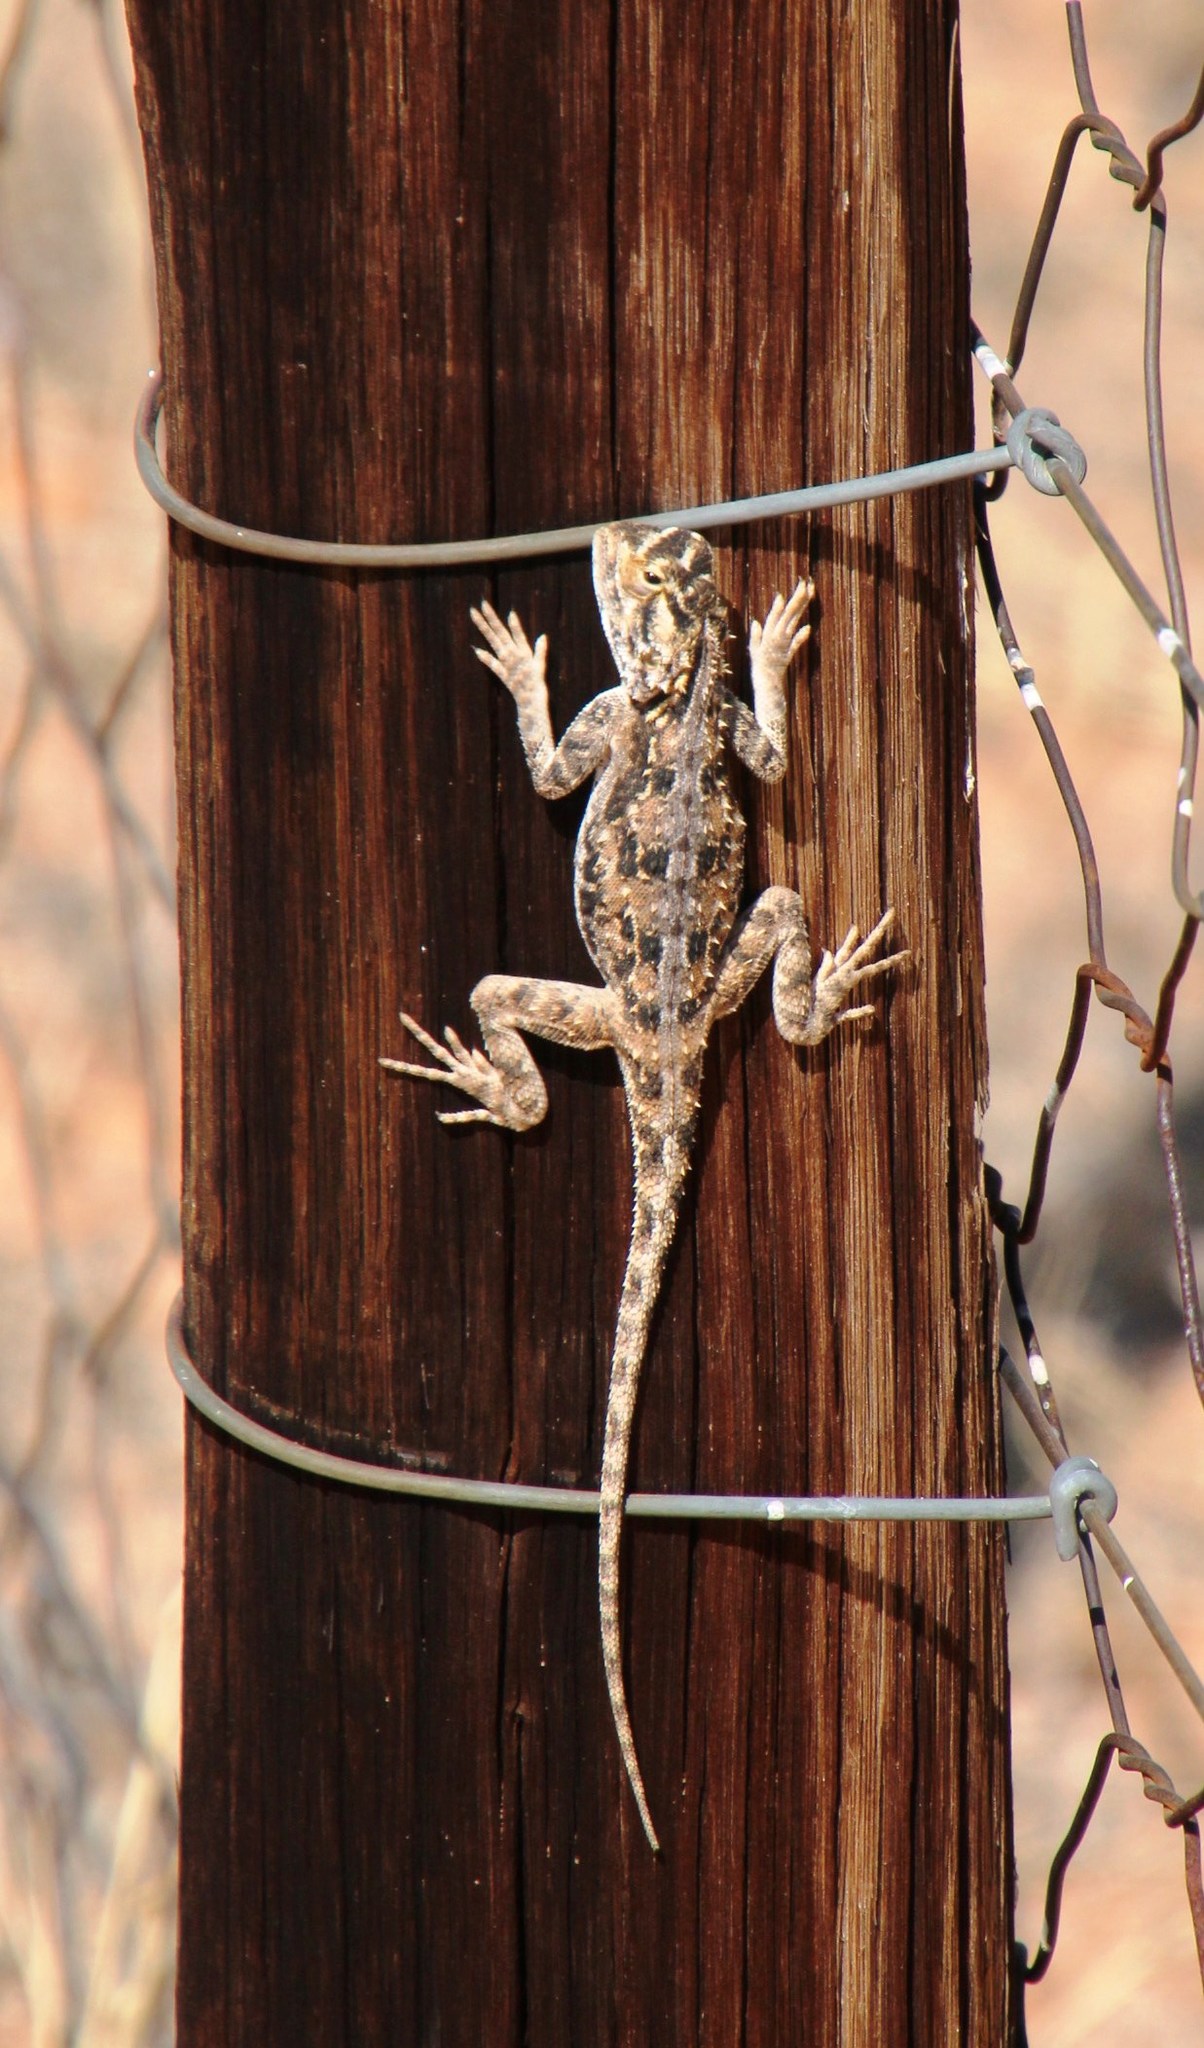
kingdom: Animalia
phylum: Chordata
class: Squamata
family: Agamidae
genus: Agama
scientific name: Agama aculeata
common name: Common ground agama
